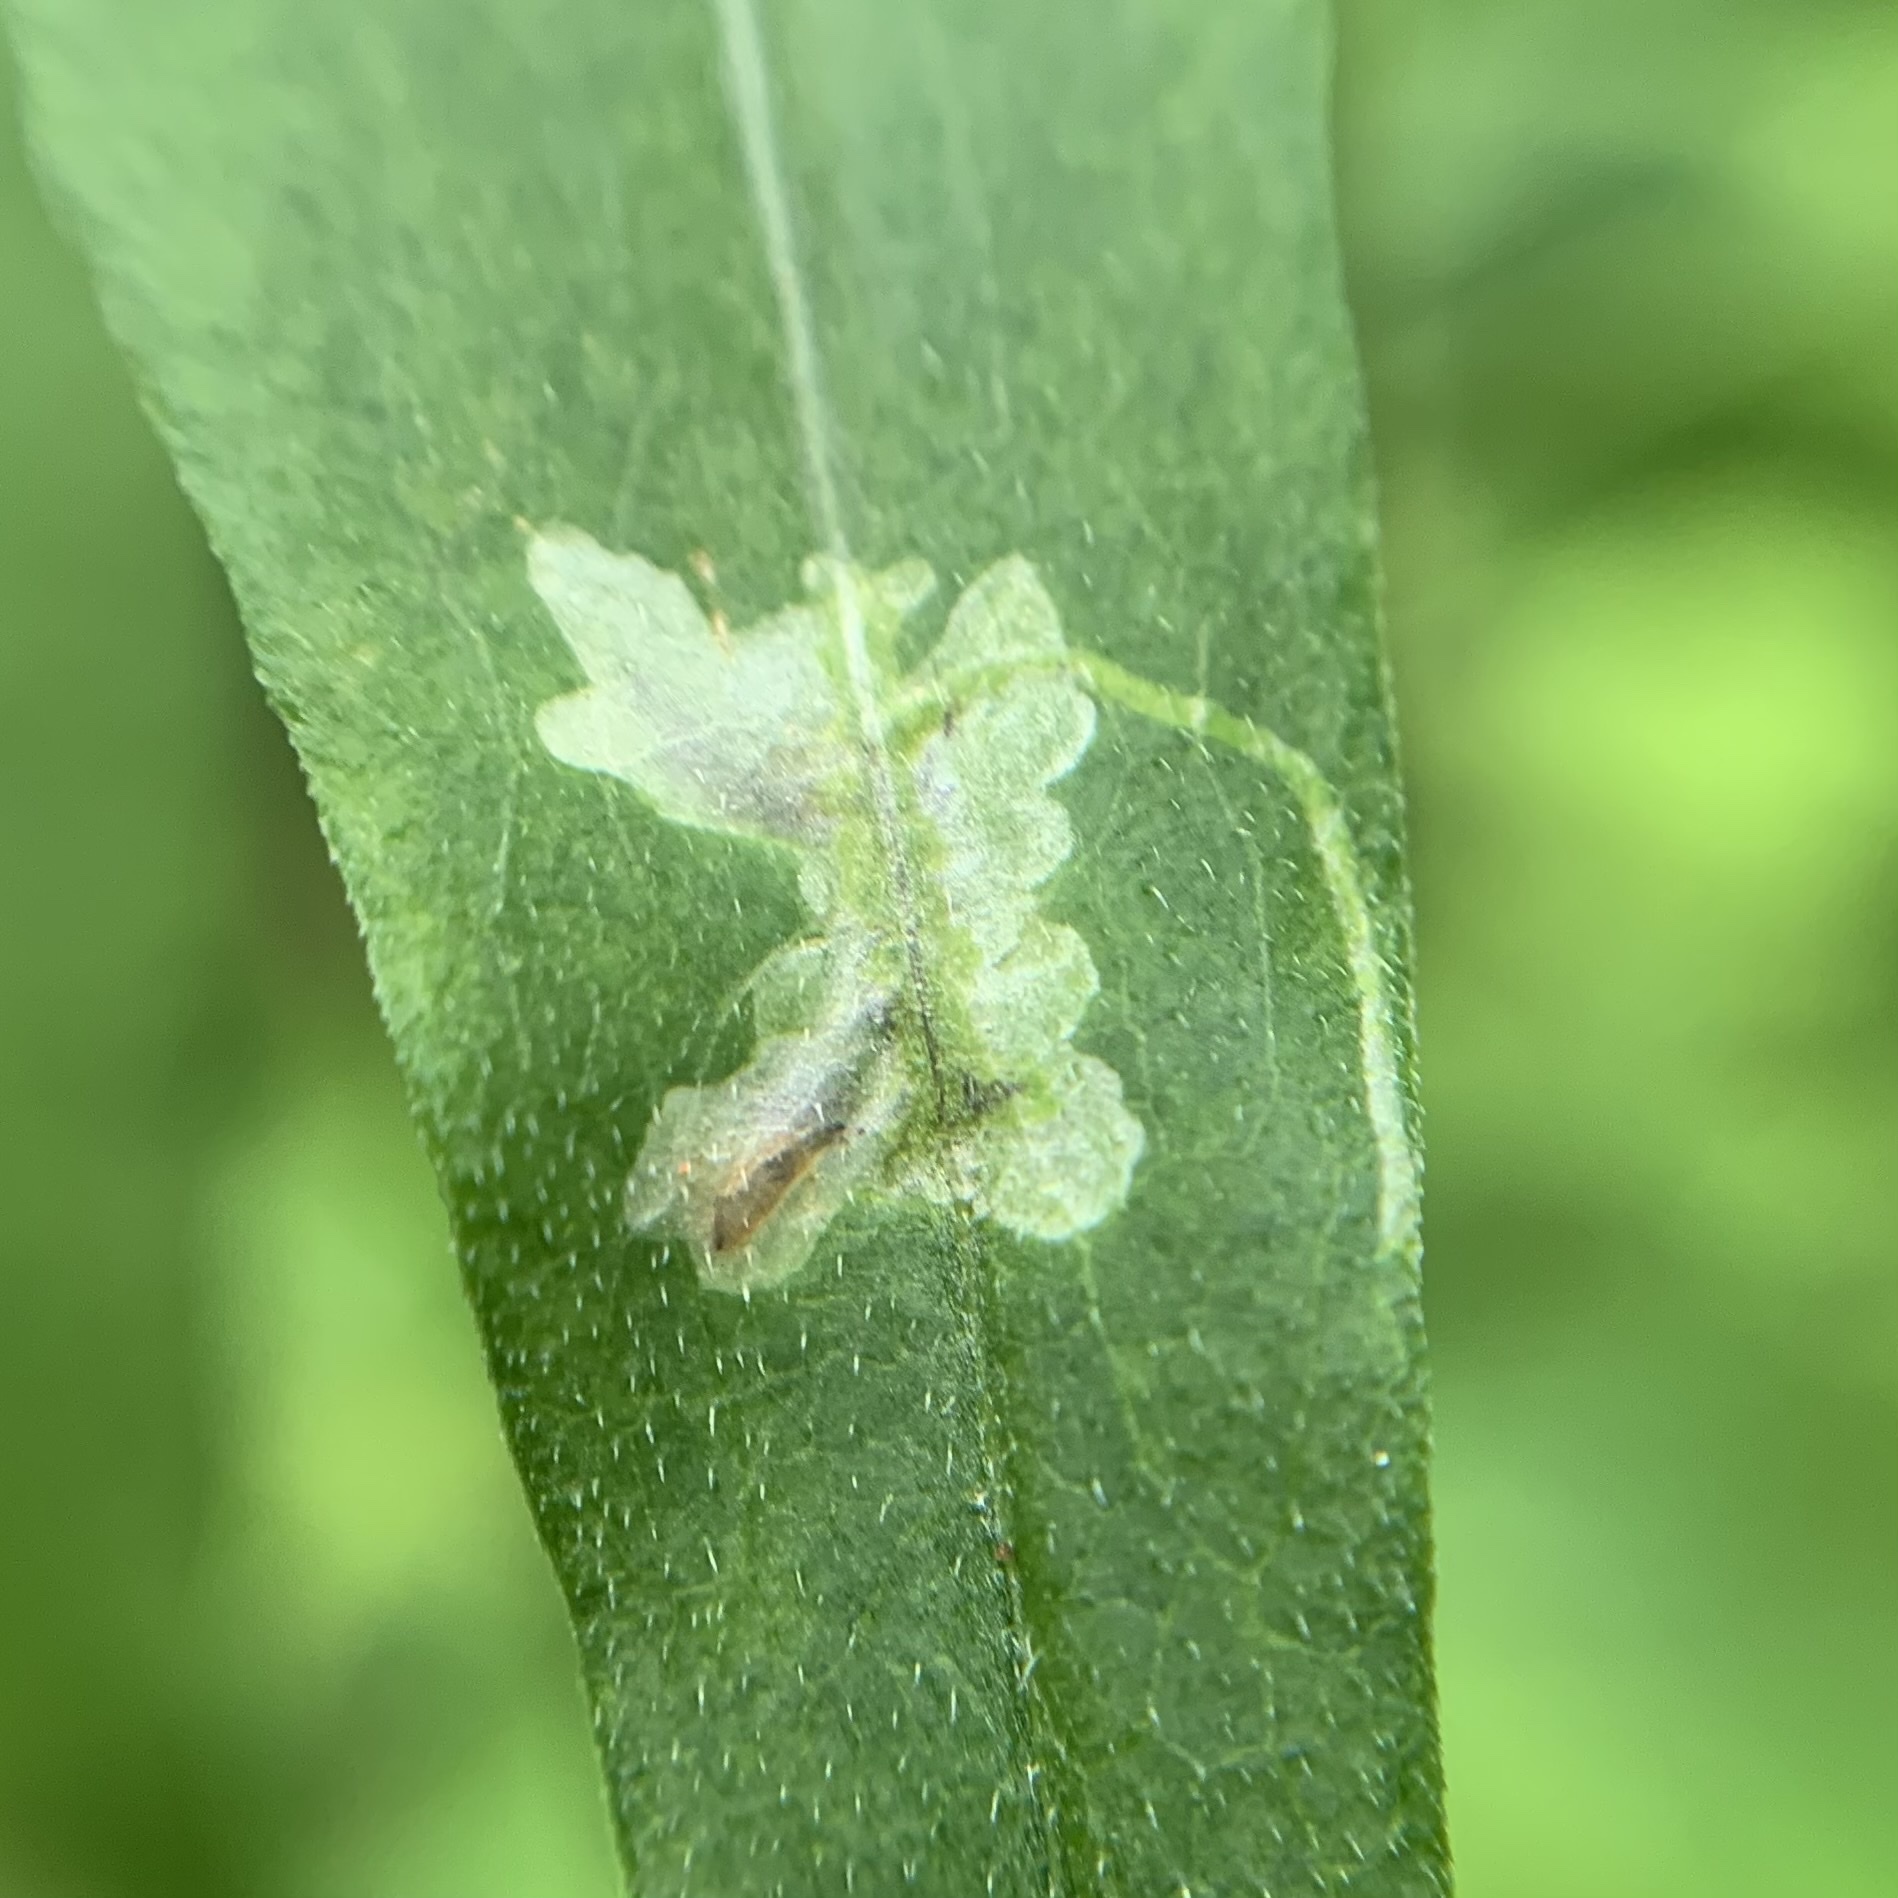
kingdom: Animalia
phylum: Arthropoda
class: Insecta
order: Diptera
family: Agromyzidae
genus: Calycomyza
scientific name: Calycomyza promissa
